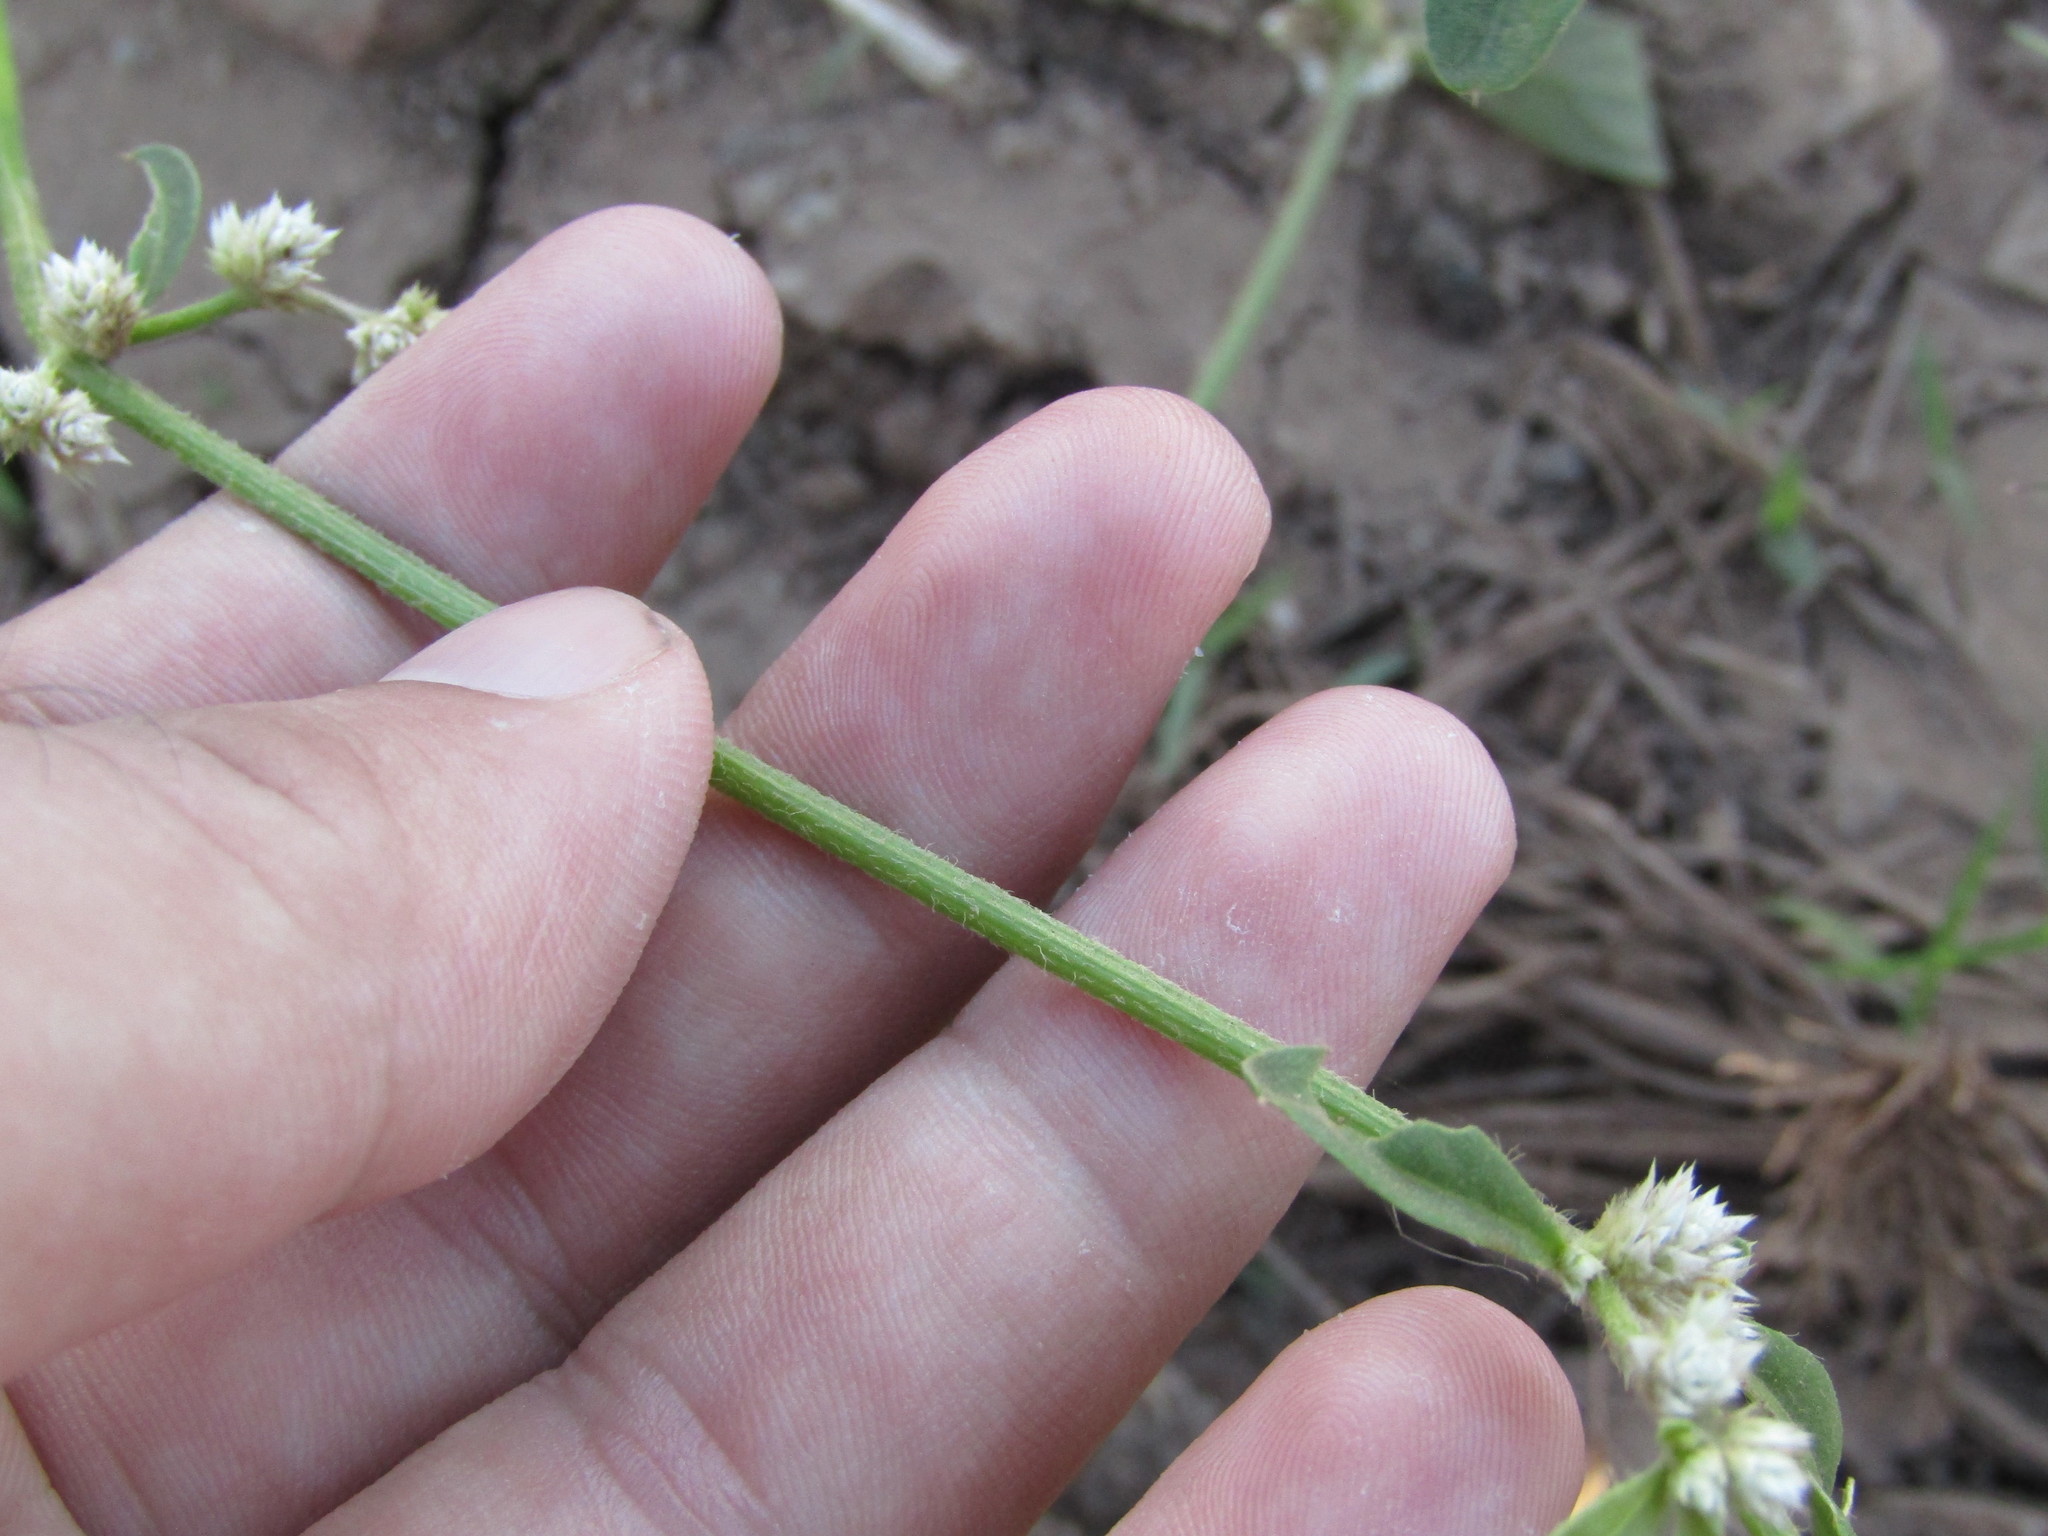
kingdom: Plantae
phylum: Tracheophyta
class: Magnoliopsida
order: Caryophyllales
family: Amaranthaceae
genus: Alternanthera
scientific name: Alternanthera ficoidea
